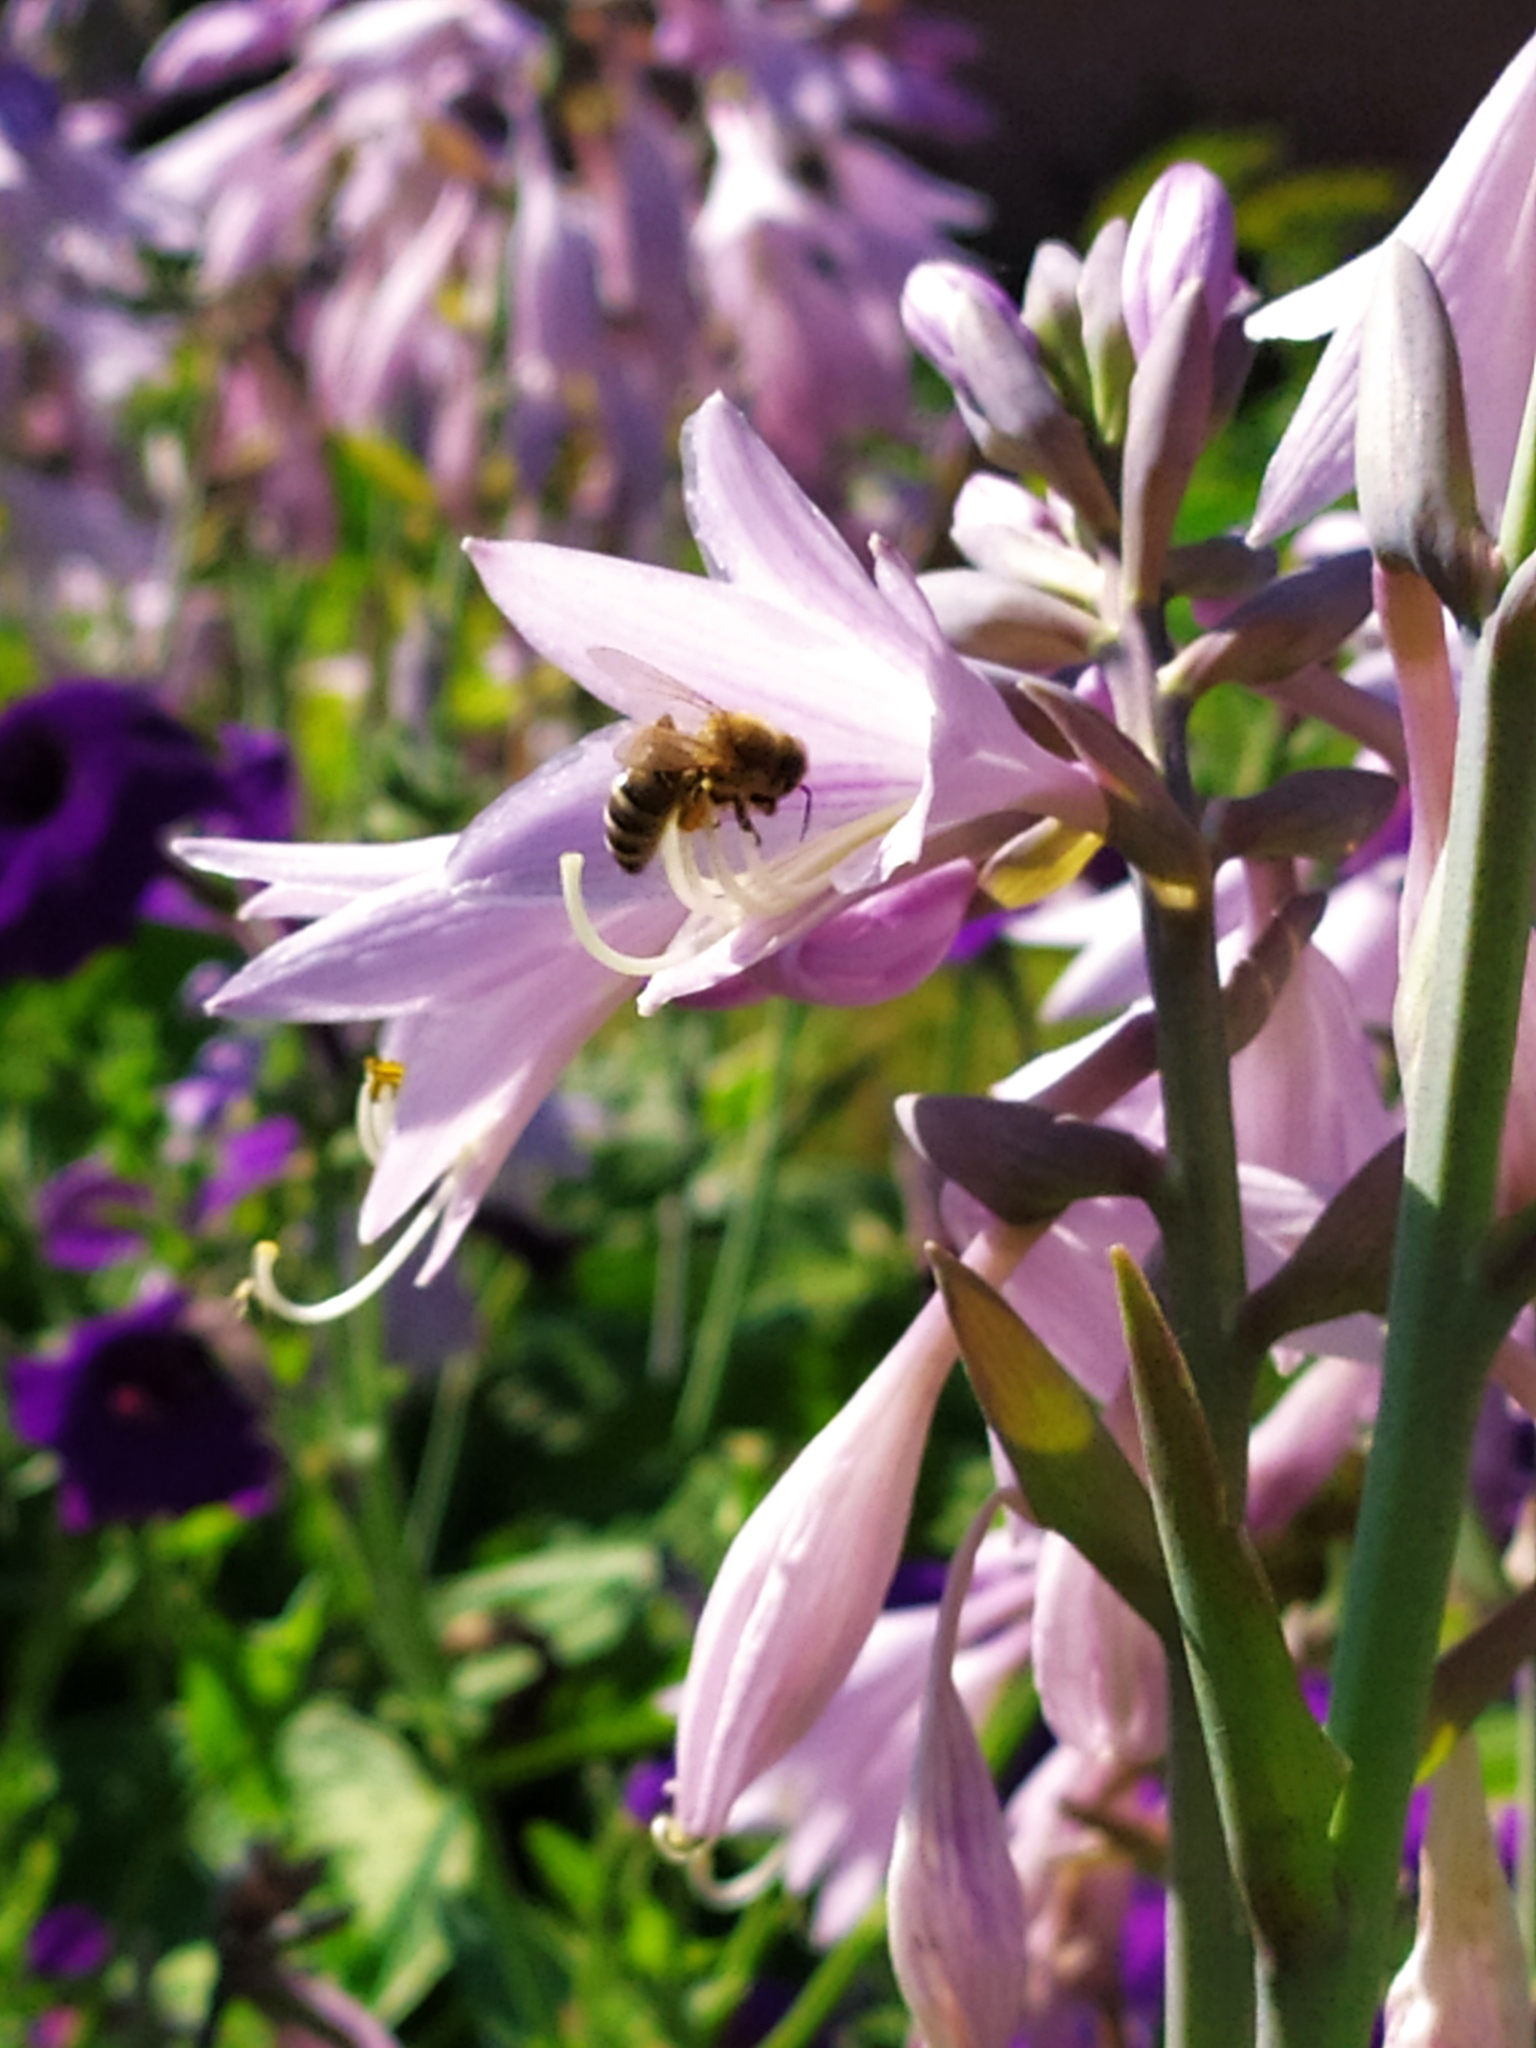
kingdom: Animalia
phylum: Arthropoda
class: Insecta
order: Hymenoptera
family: Apidae
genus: Apis
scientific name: Apis mellifera
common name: Honey bee
